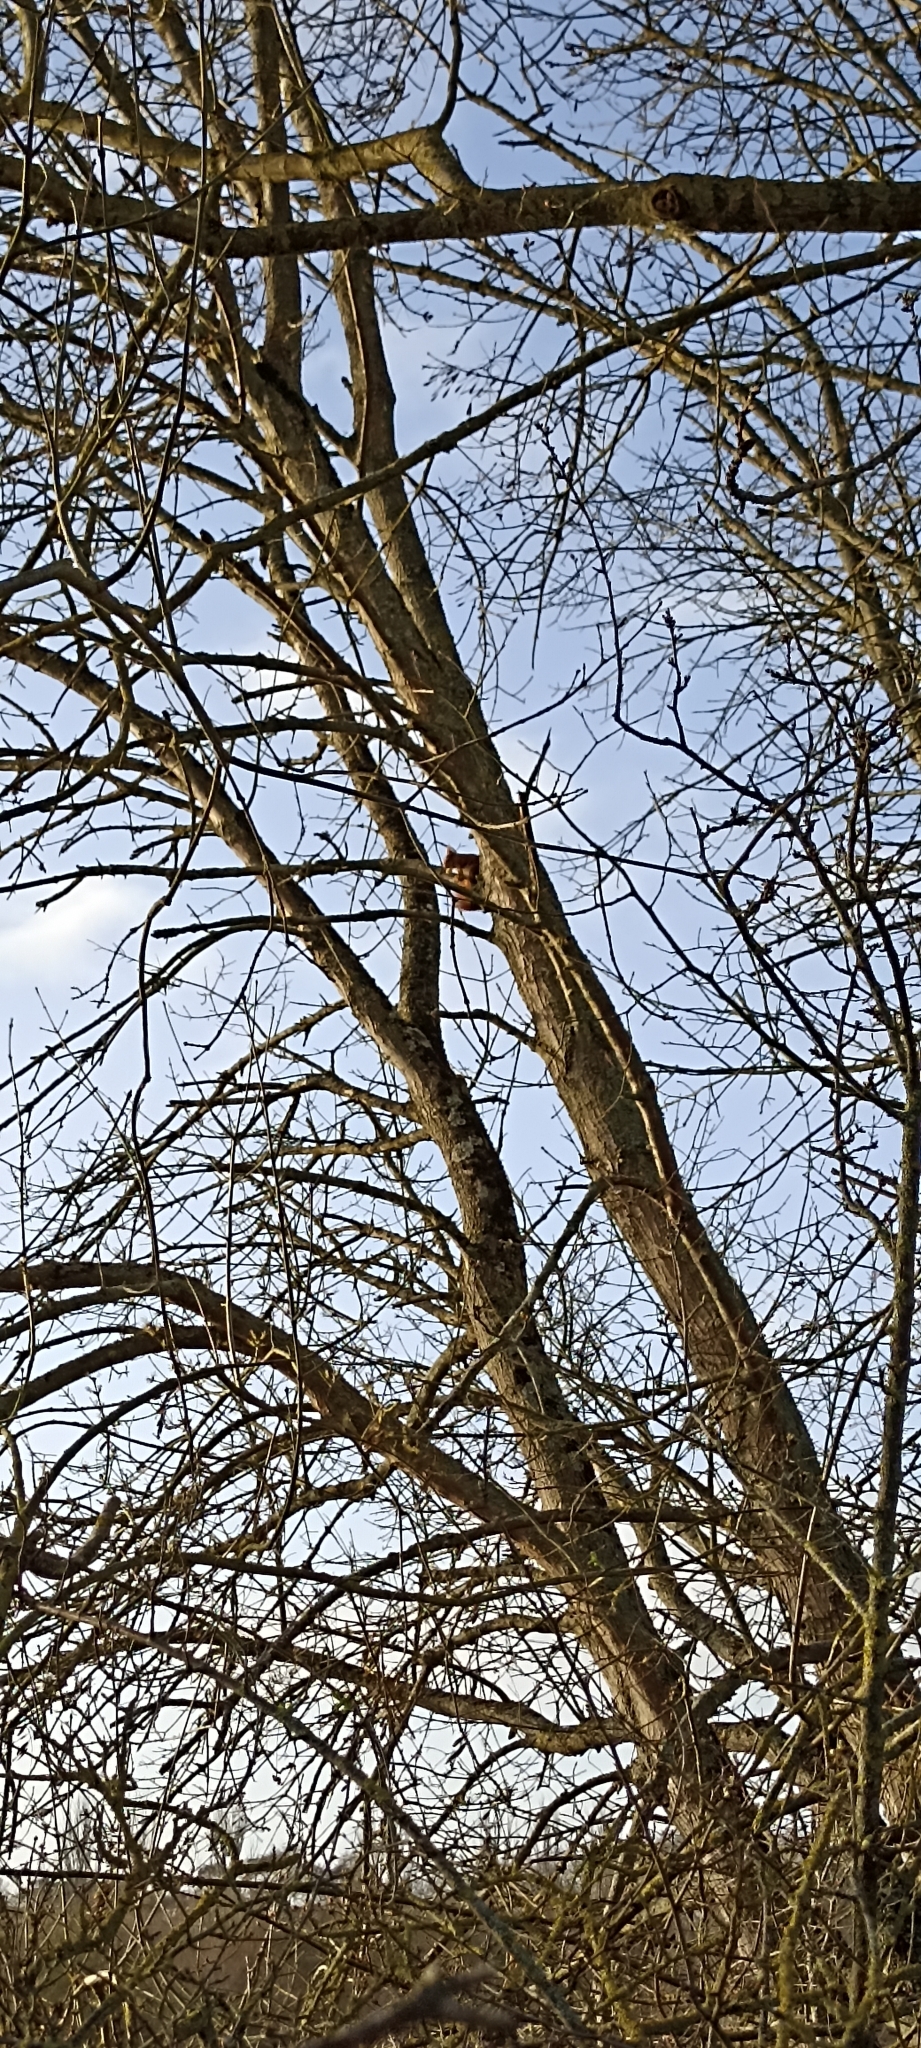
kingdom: Animalia
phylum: Chordata
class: Mammalia
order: Rodentia
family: Sciuridae
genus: Sciurus
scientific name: Sciurus vulgaris
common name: Eurasian red squirrel
